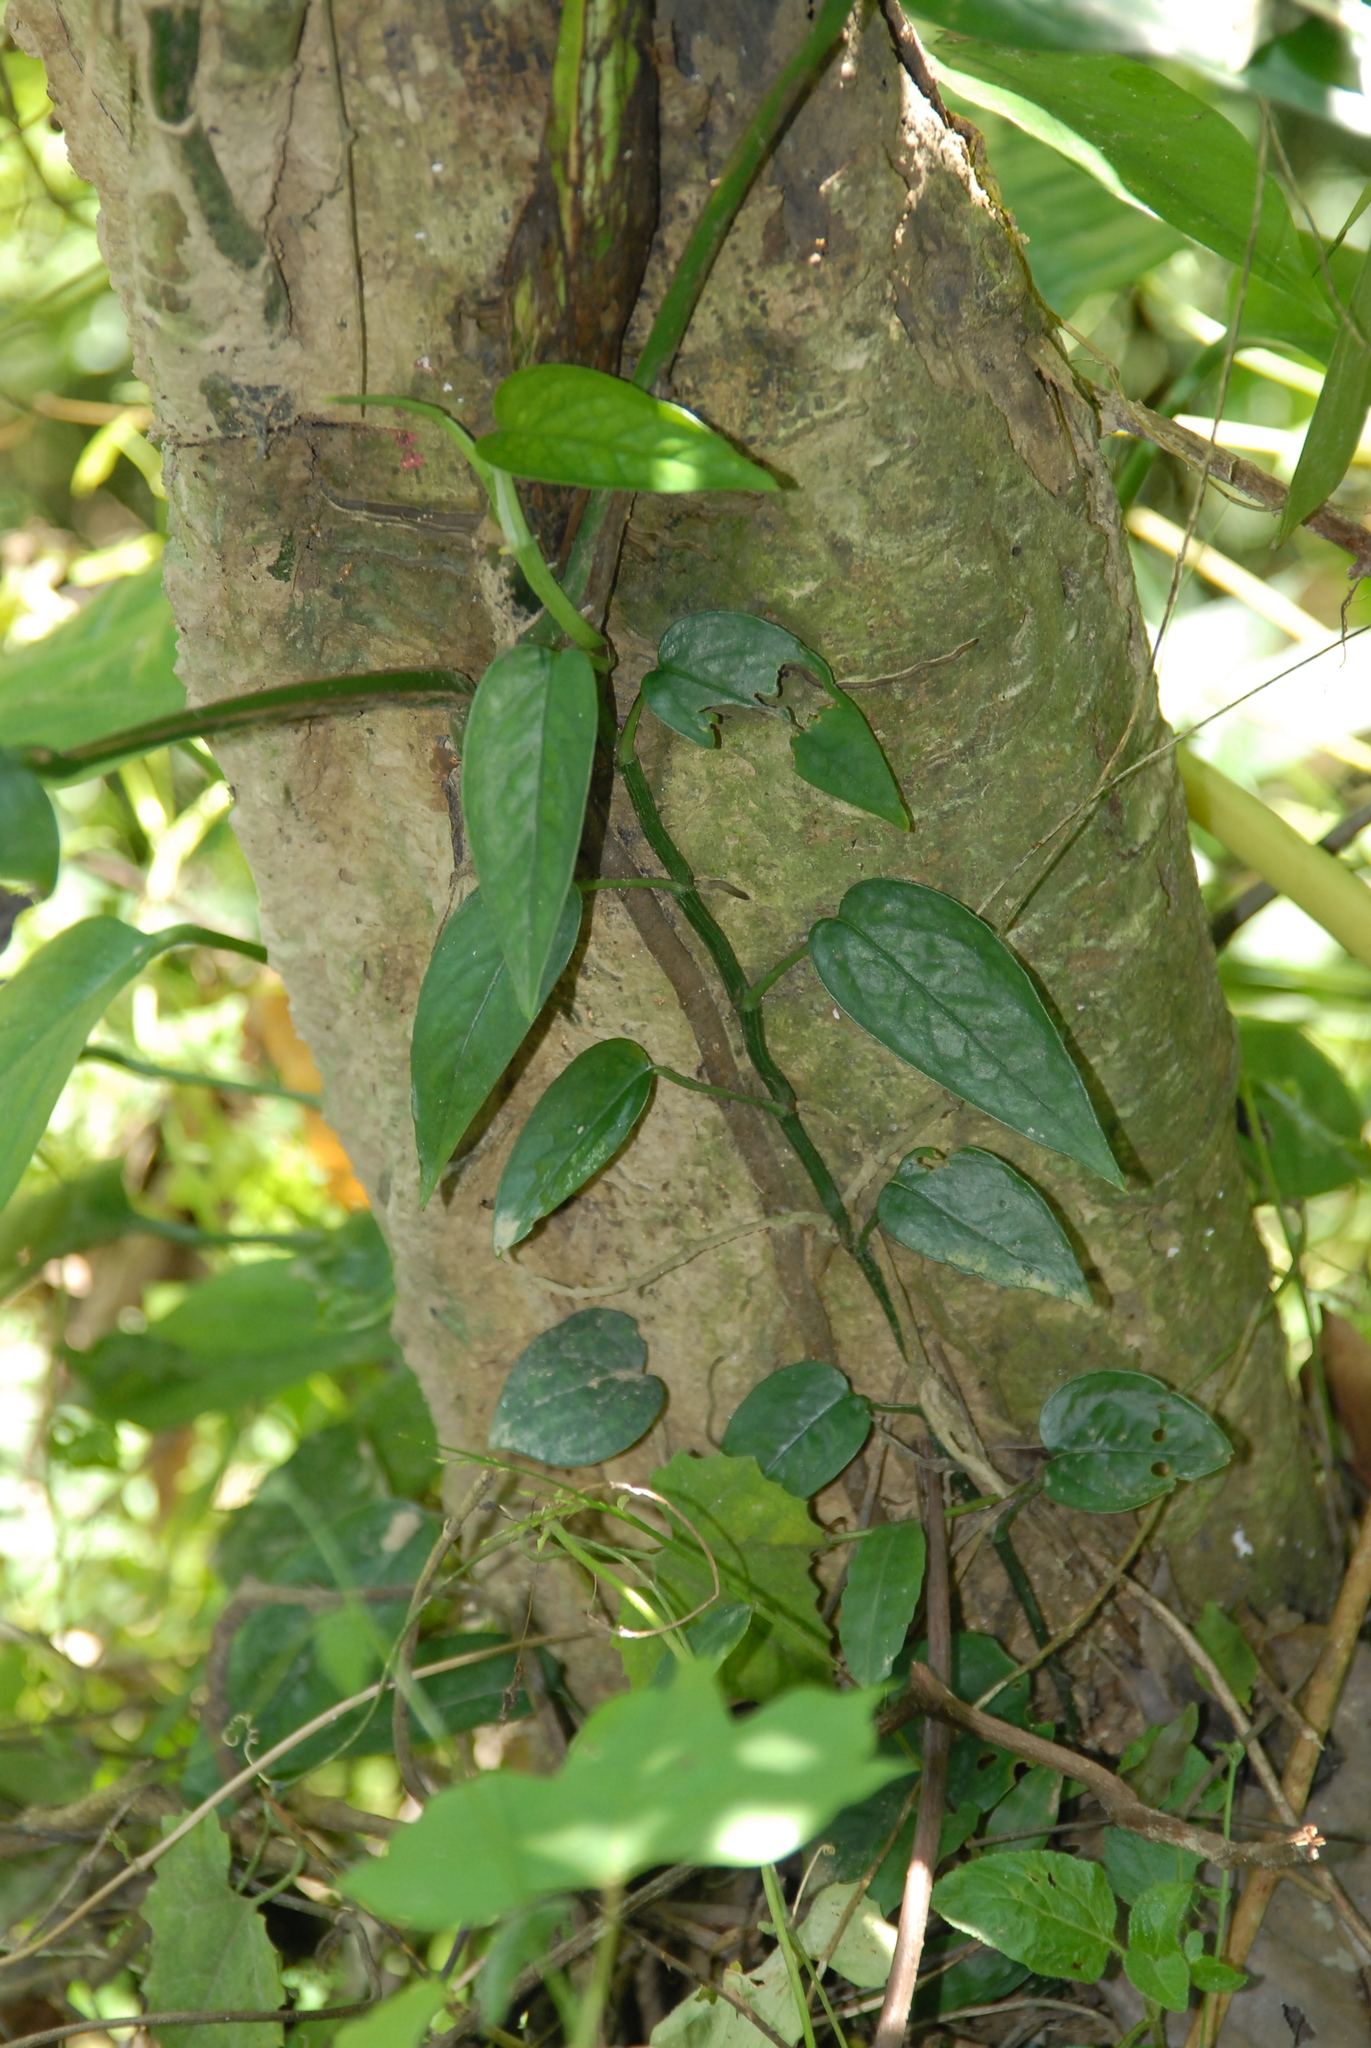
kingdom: Plantae
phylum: Tracheophyta
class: Liliopsida
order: Alismatales
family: Araceae
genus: Epipremnum
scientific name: Epipremnum pinnatum
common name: Centipede tongavine
